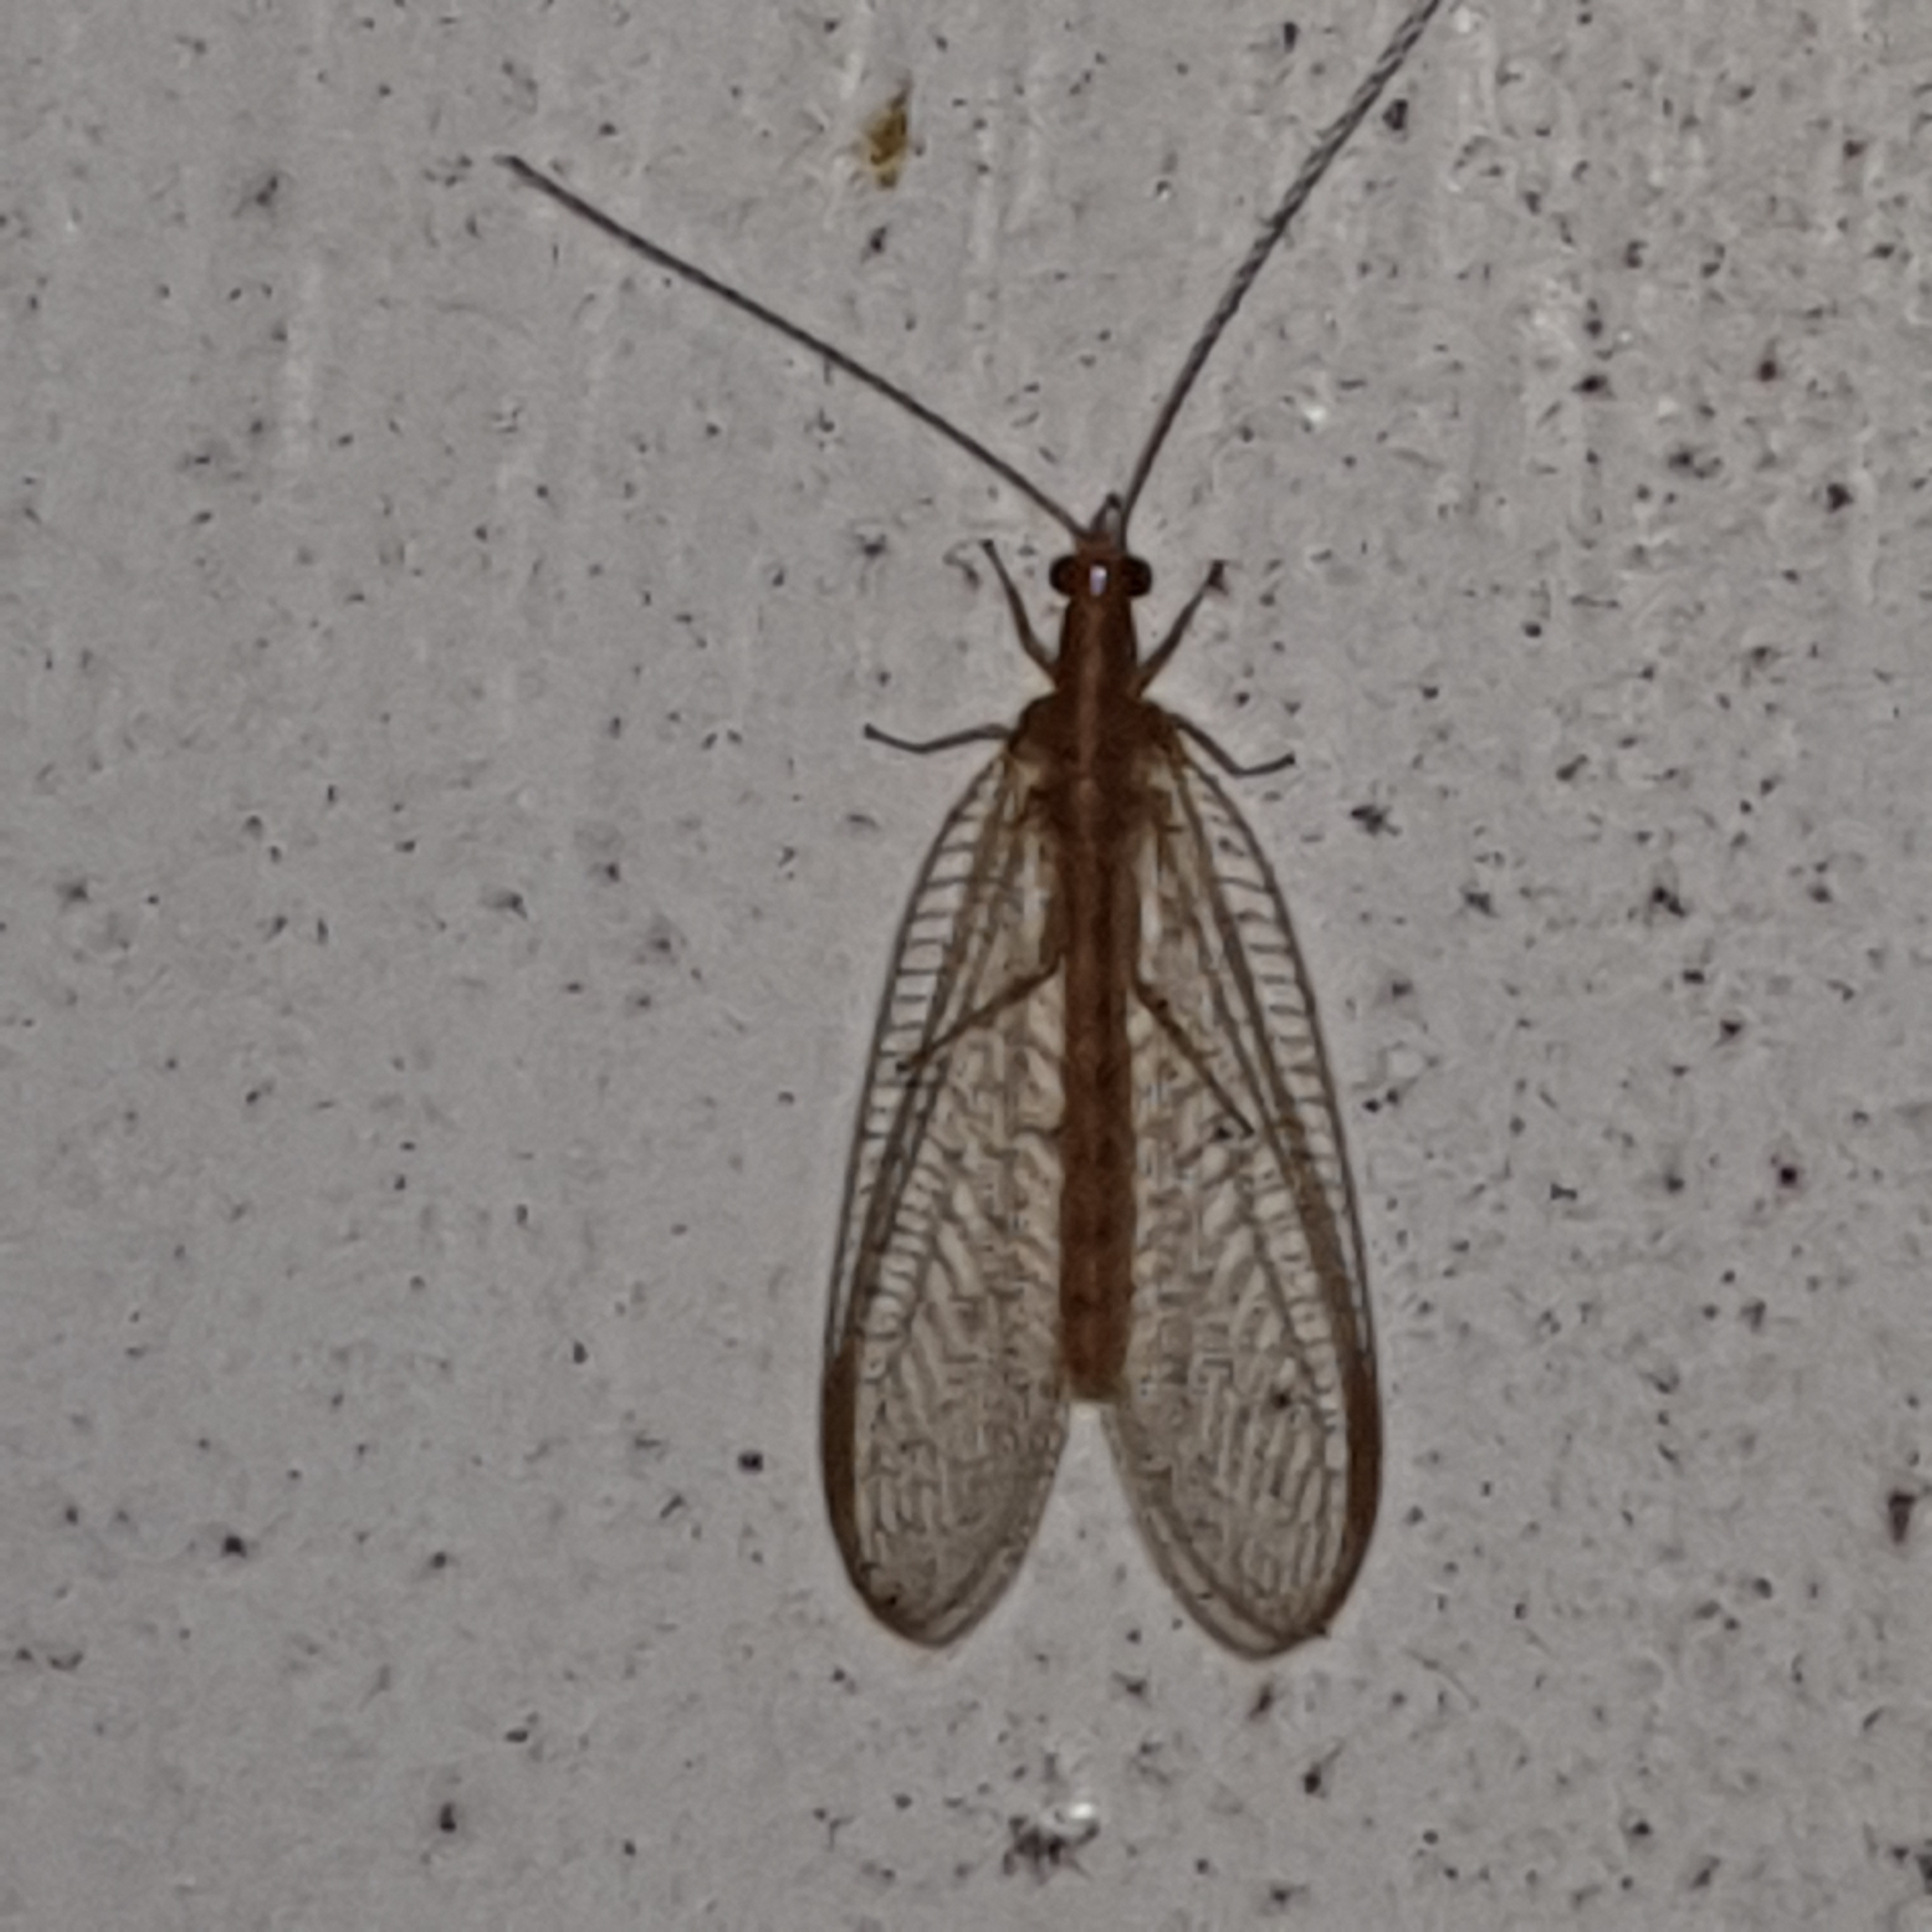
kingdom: Animalia
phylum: Arthropoda
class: Insecta
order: Neuroptera
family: Chrysopidae
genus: Chrysoperla
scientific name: Chrysoperla
